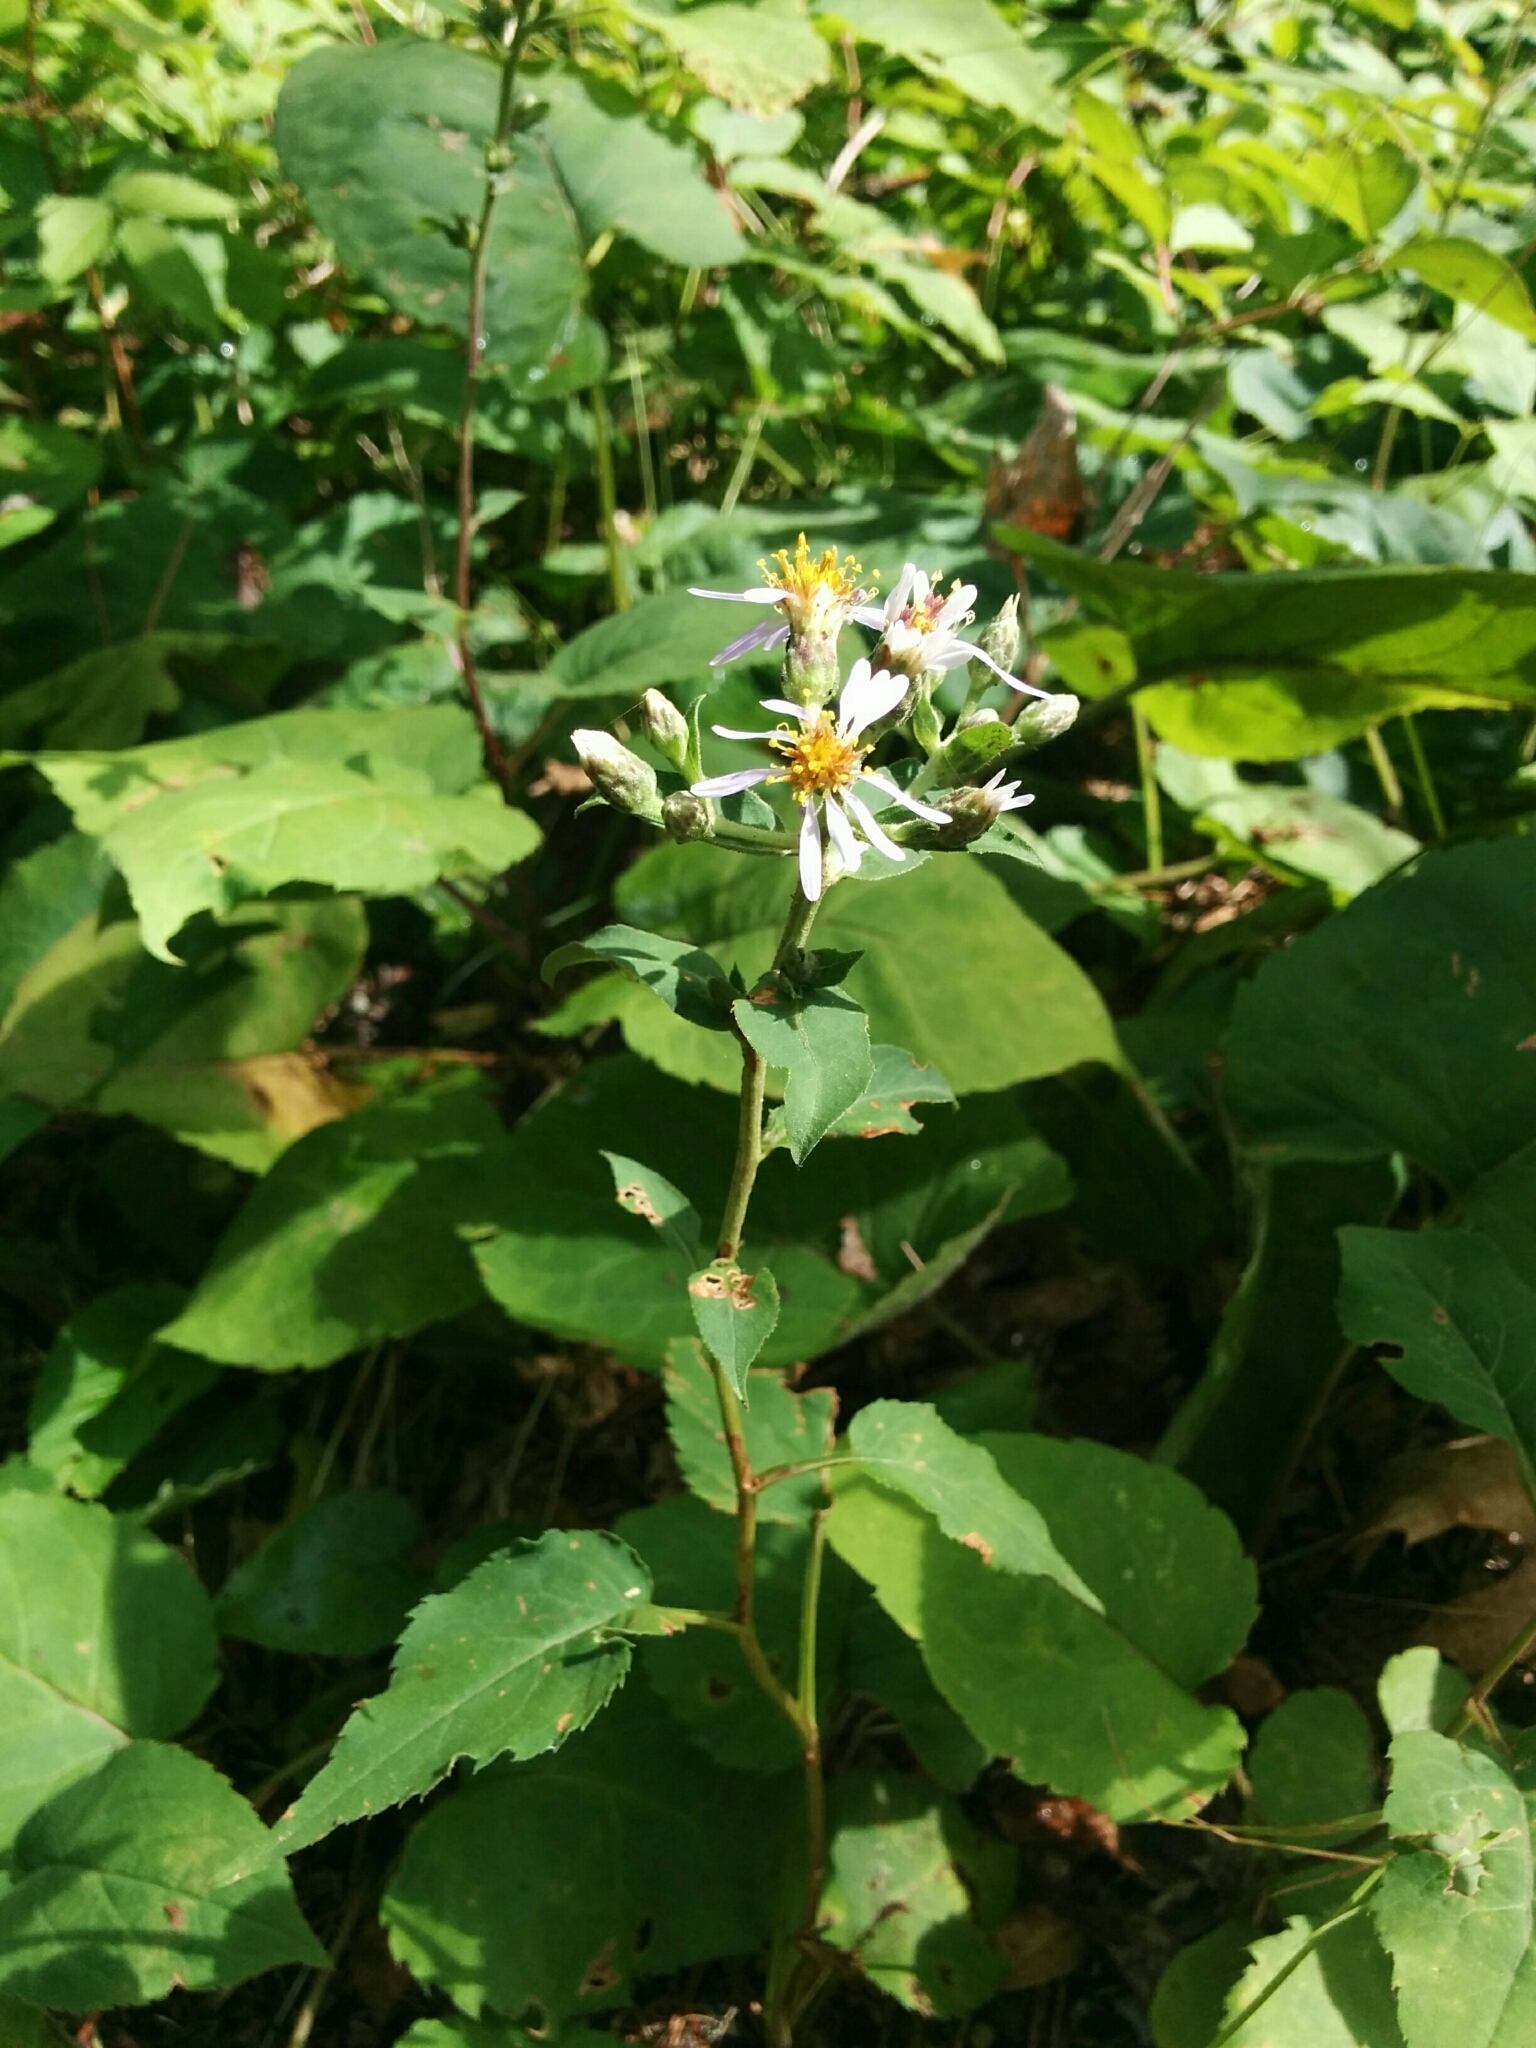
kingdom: Plantae
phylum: Tracheophyta
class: Magnoliopsida
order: Asterales
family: Asteraceae
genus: Eurybia
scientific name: Eurybia macrophylla
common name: Big-leaved aster
